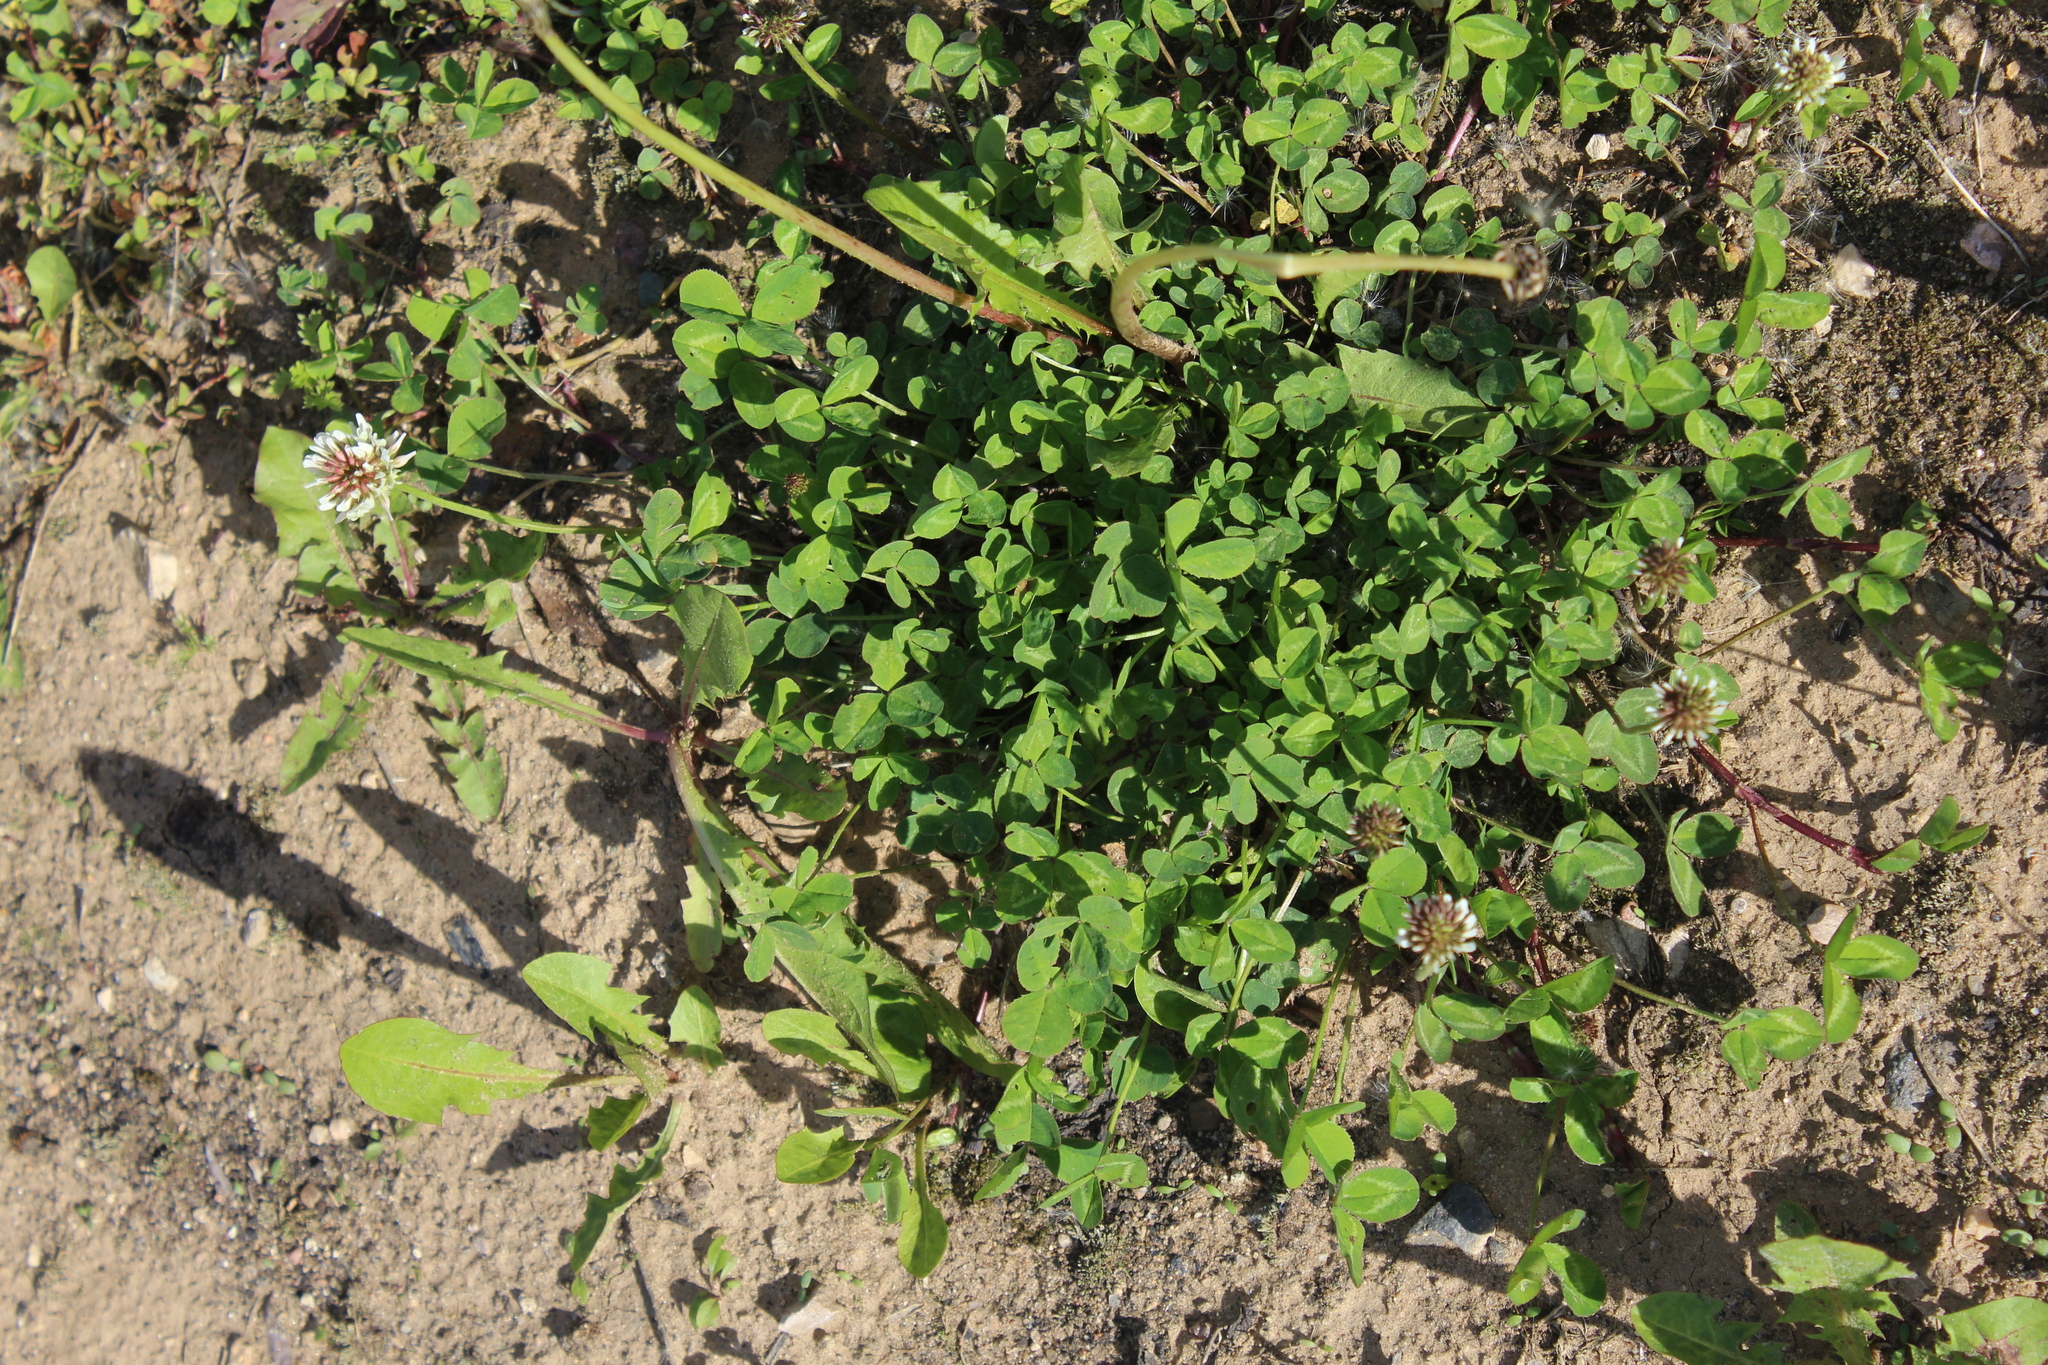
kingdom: Plantae
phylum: Tracheophyta
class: Magnoliopsida
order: Fabales
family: Fabaceae
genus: Trifolium
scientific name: Trifolium repens
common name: White clover
